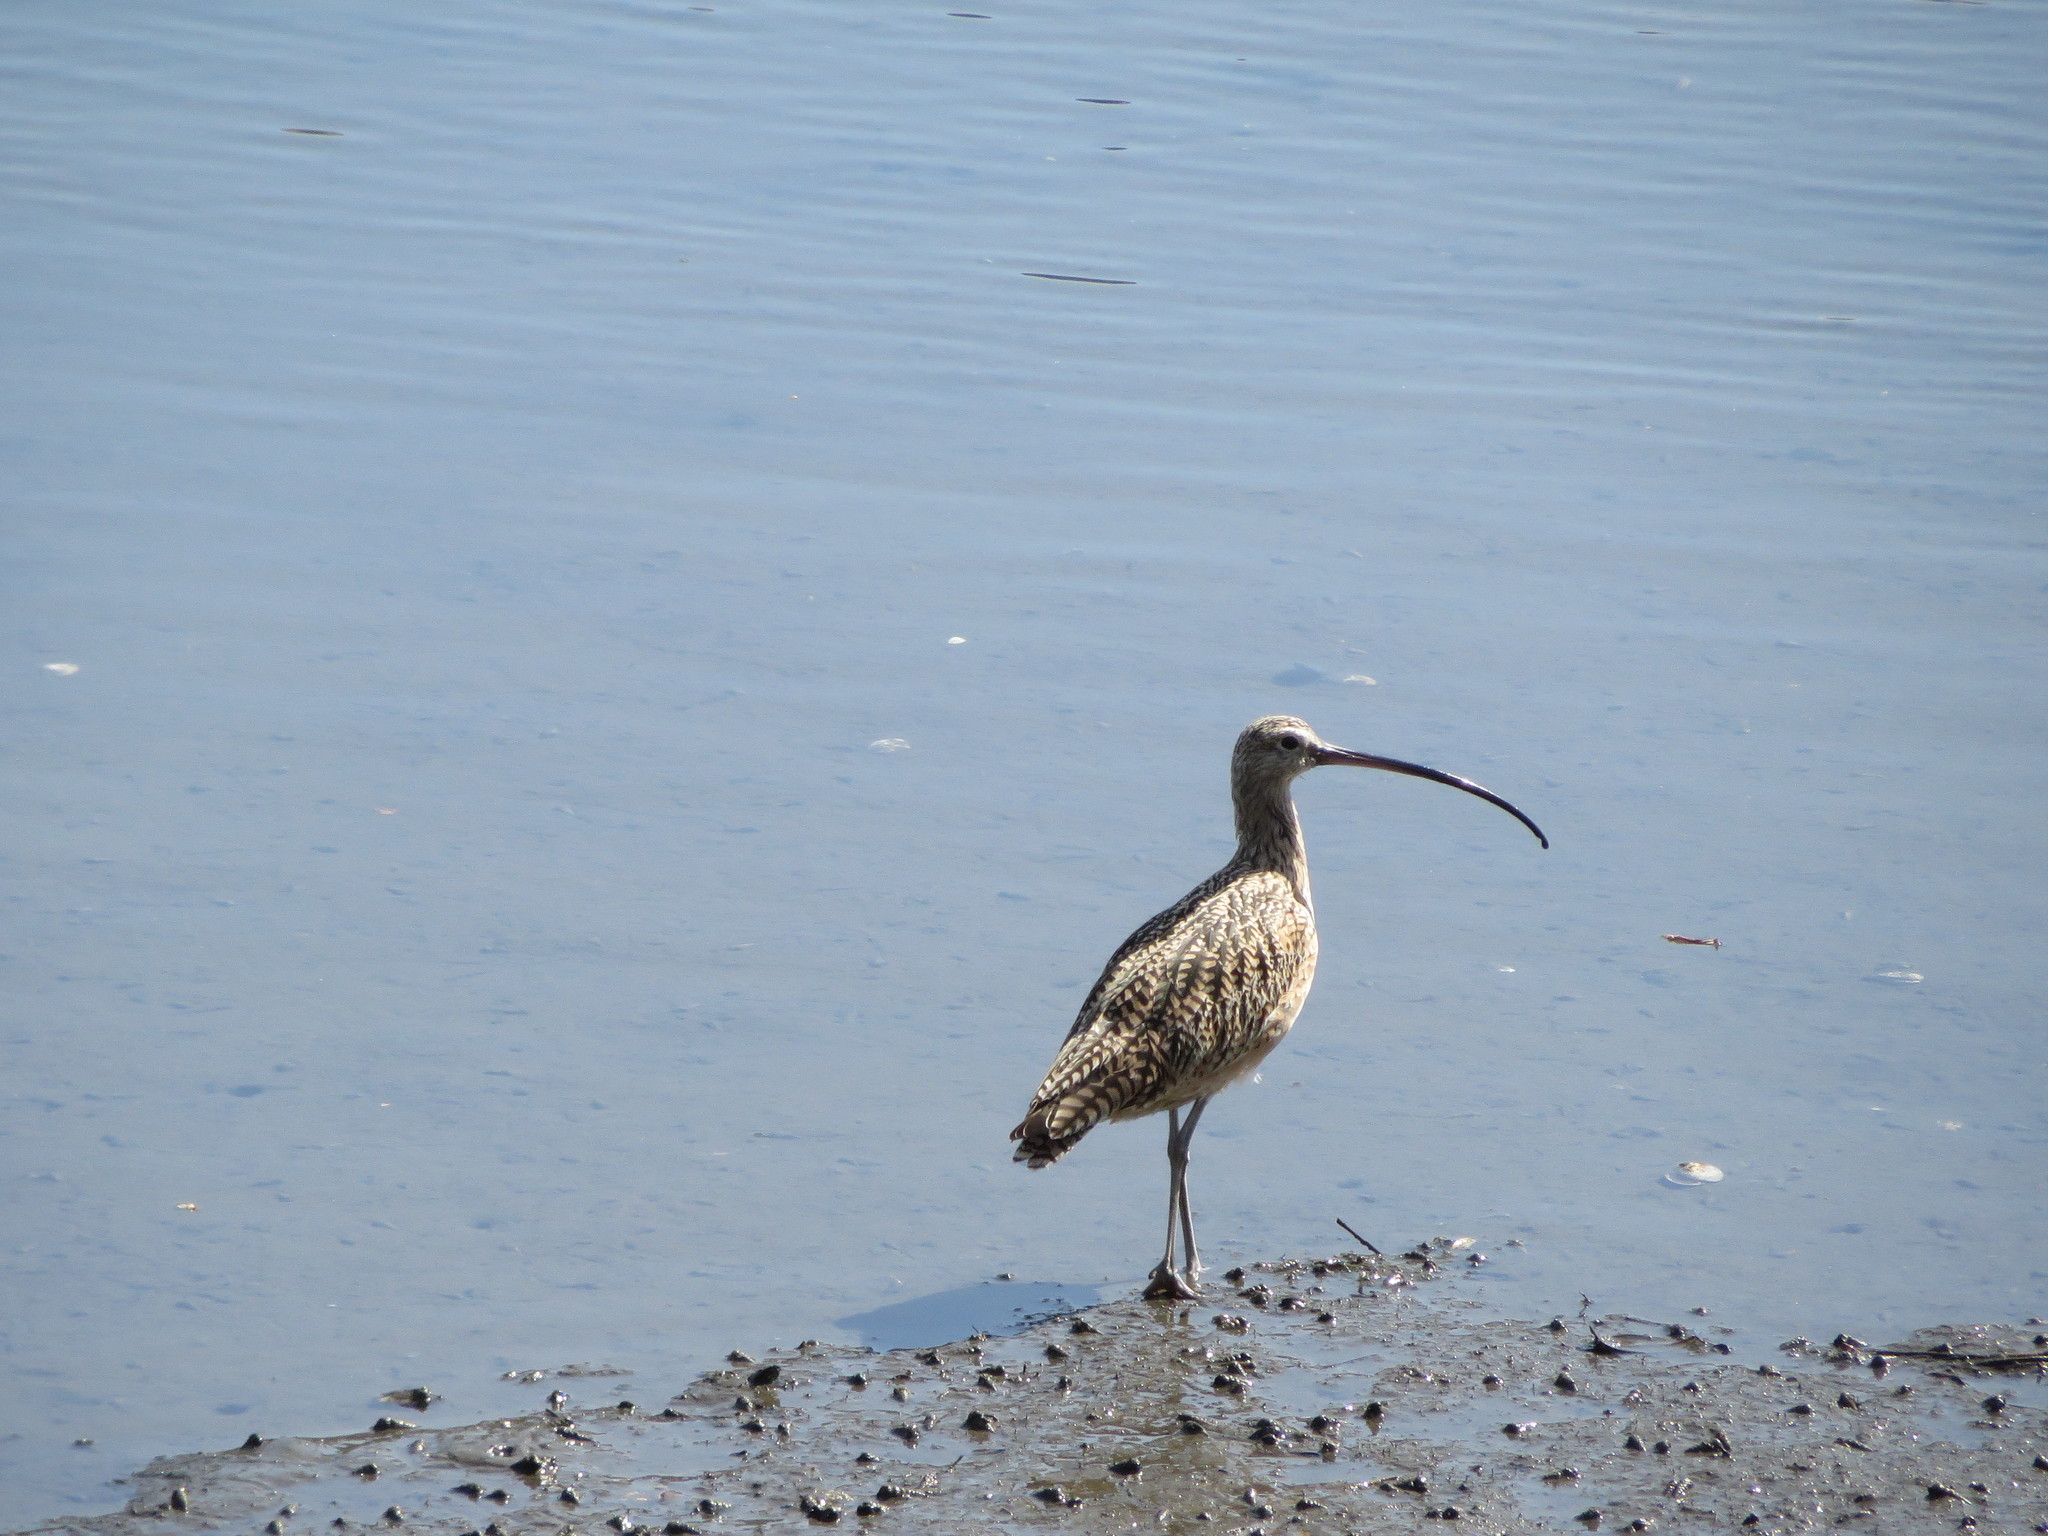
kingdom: Animalia
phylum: Chordata
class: Aves
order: Charadriiformes
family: Scolopacidae
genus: Numenius
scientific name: Numenius americanus
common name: Long-billed curlew
